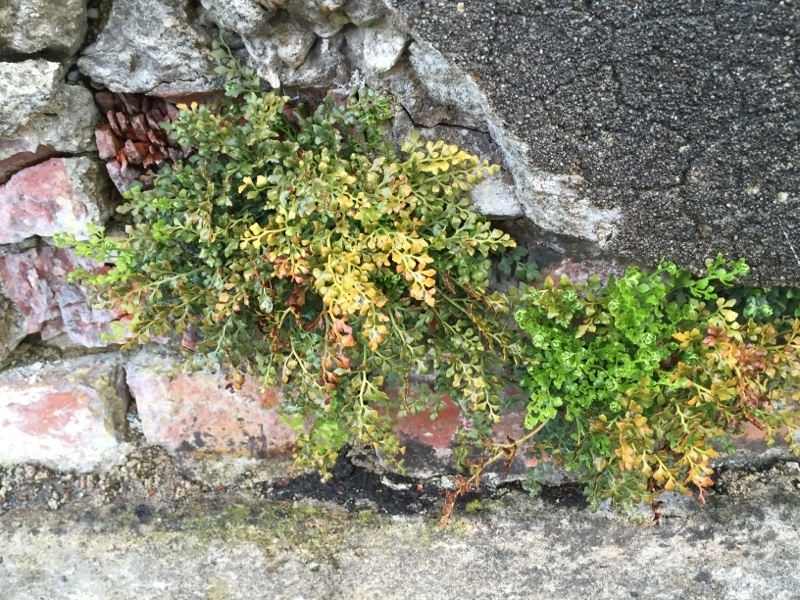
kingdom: Plantae
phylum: Tracheophyta
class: Polypodiopsida
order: Polypodiales
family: Aspleniaceae
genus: Asplenium
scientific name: Asplenium ruta-muraria
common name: Wall-rue
